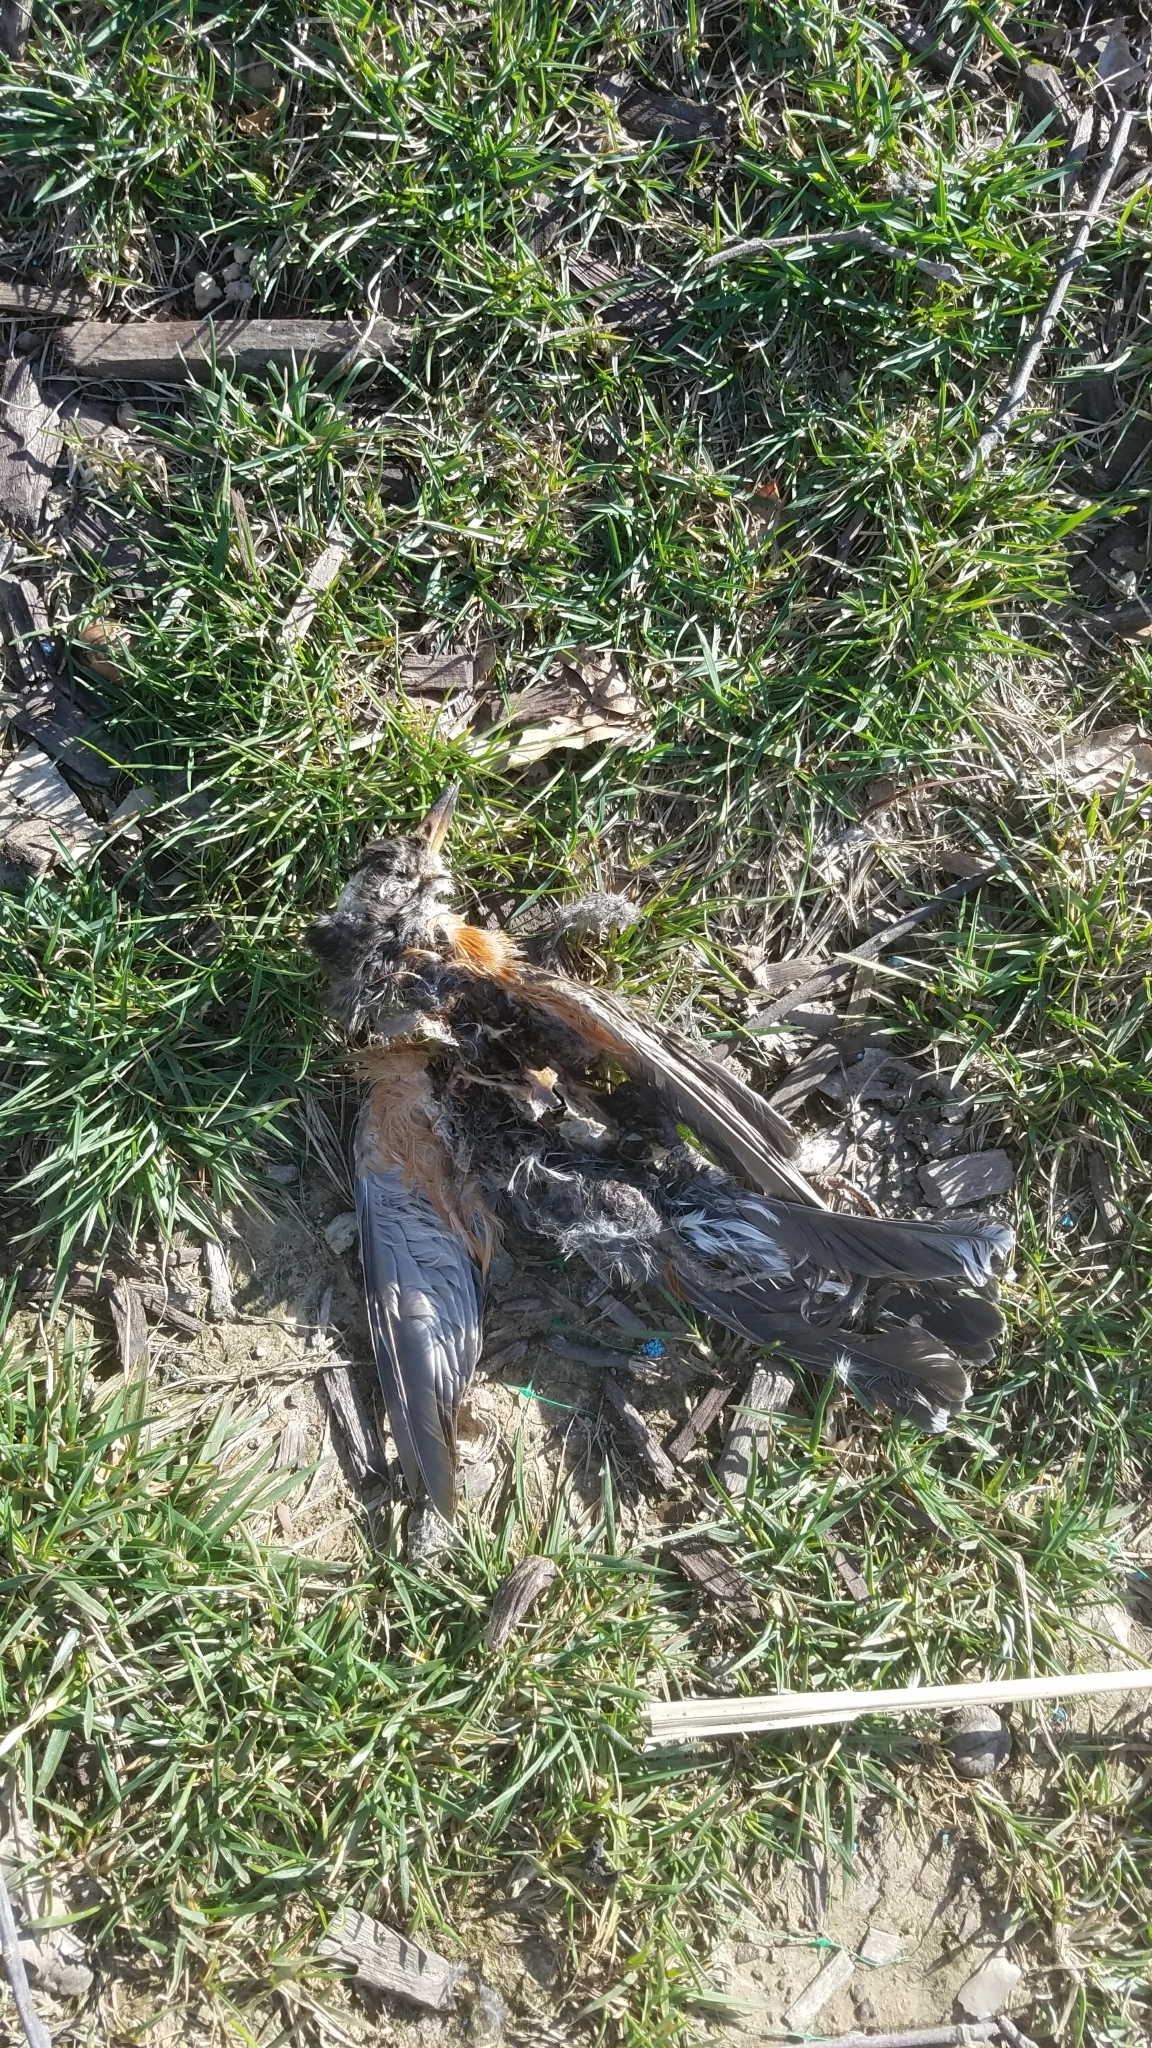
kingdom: Animalia
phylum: Chordata
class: Aves
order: Passeriformes
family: Turdidae
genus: Turdus
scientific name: Turdus migratorius
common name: American robin
